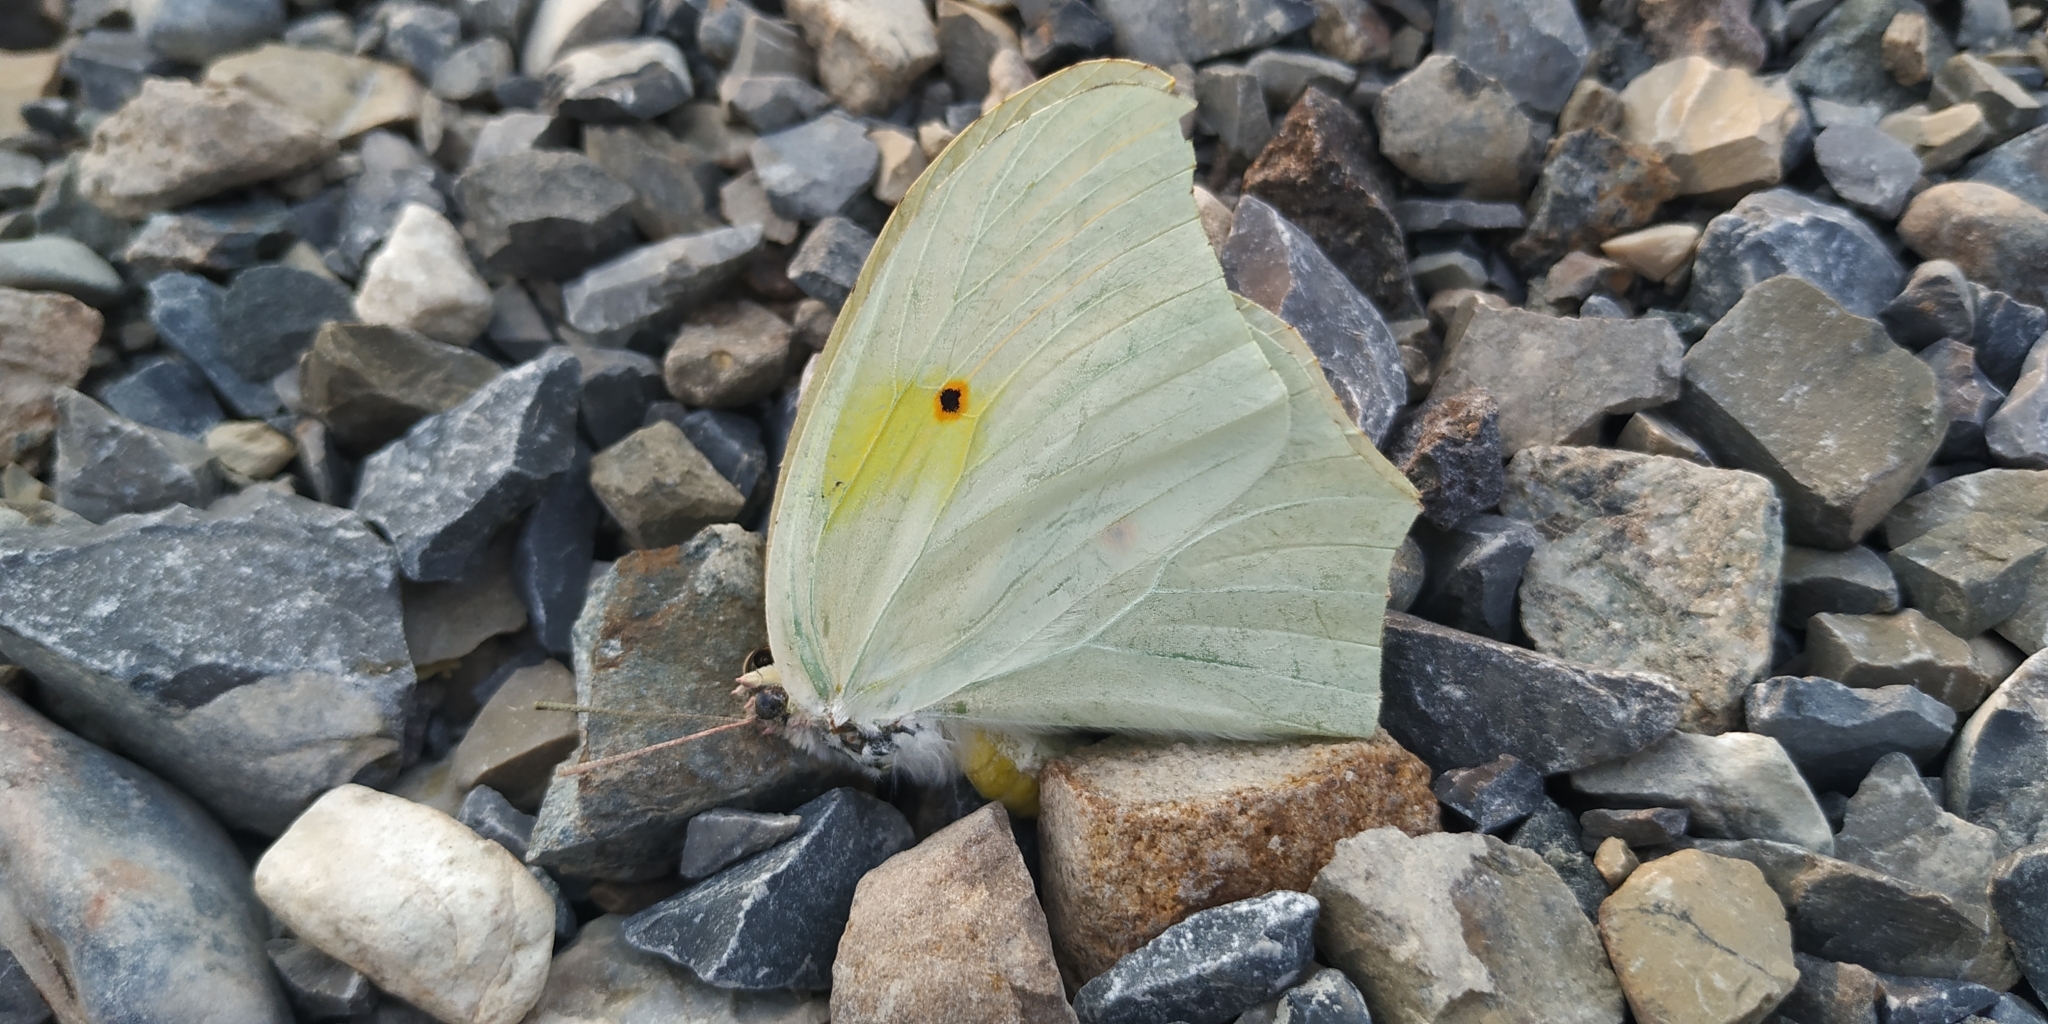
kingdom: Animalia
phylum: Arthropoda
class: Insecta
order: Lepidoptera
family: Pieridae
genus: Anteos
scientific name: Anteos clorinde
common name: White angled sulphur
